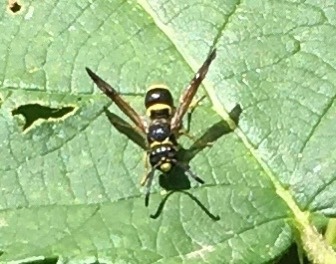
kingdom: Animalia
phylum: Arthropoda
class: Insecta
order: Hymenoptera
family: Vespidae
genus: Ancistrocerus
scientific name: Ancistrocerus campestris
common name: Smiling mason wasp
